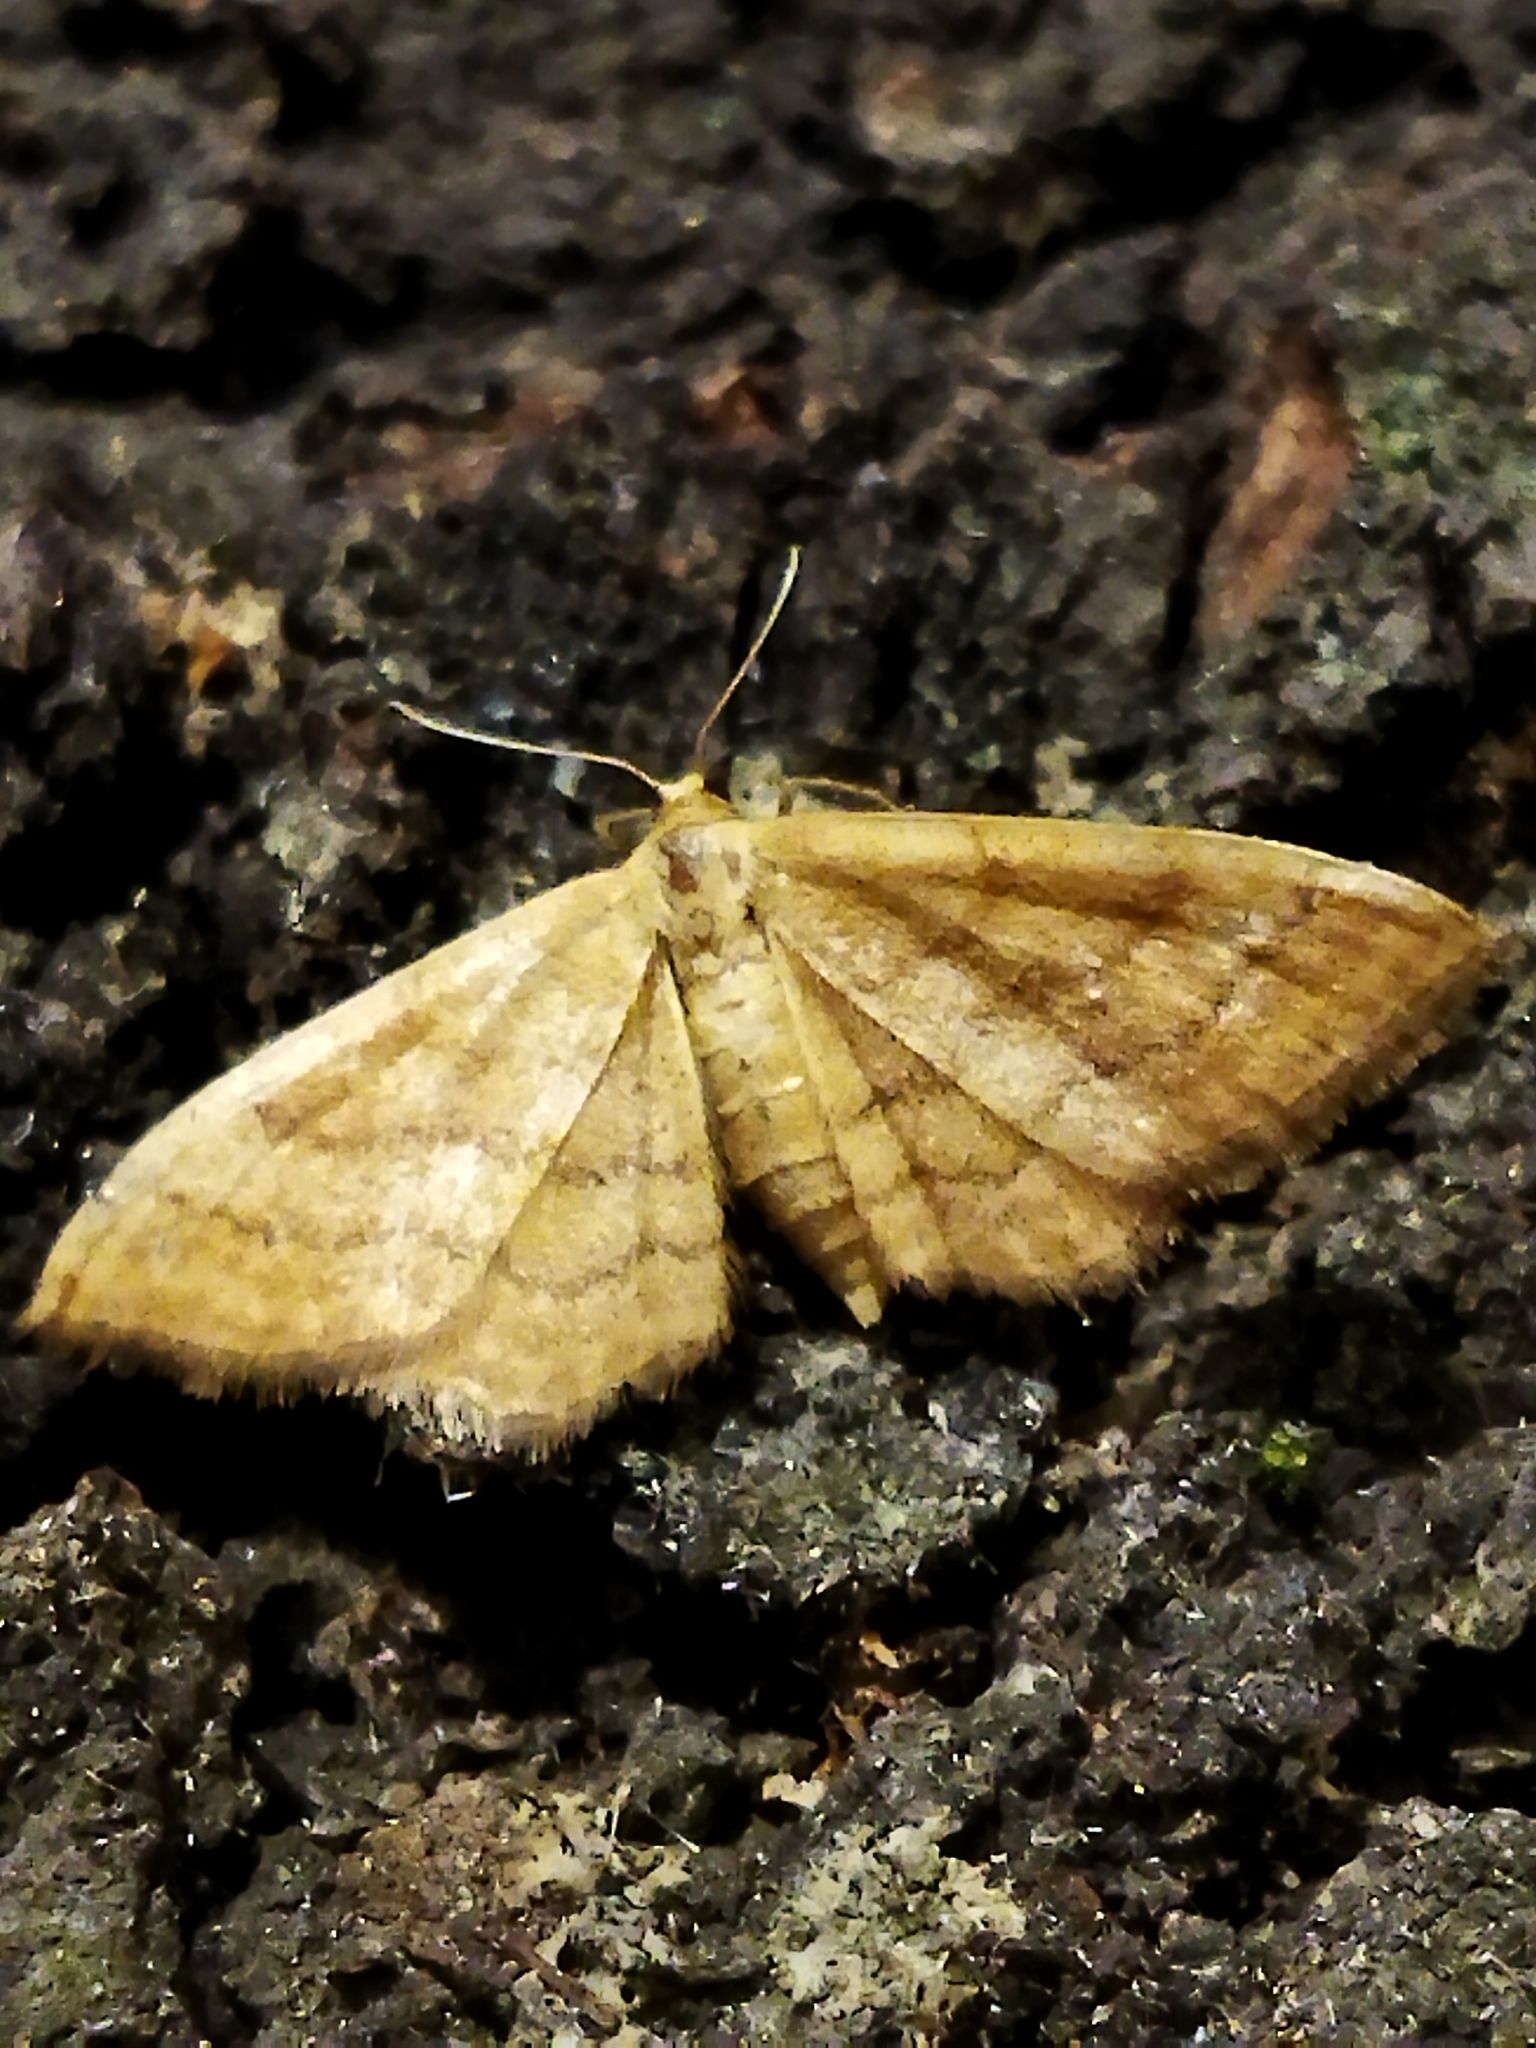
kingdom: Animalia
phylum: Arthropoda
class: Insecta
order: Lepidoptera
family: Geometridae
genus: Idaea
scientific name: Idaea ochrata
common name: Bright wave
